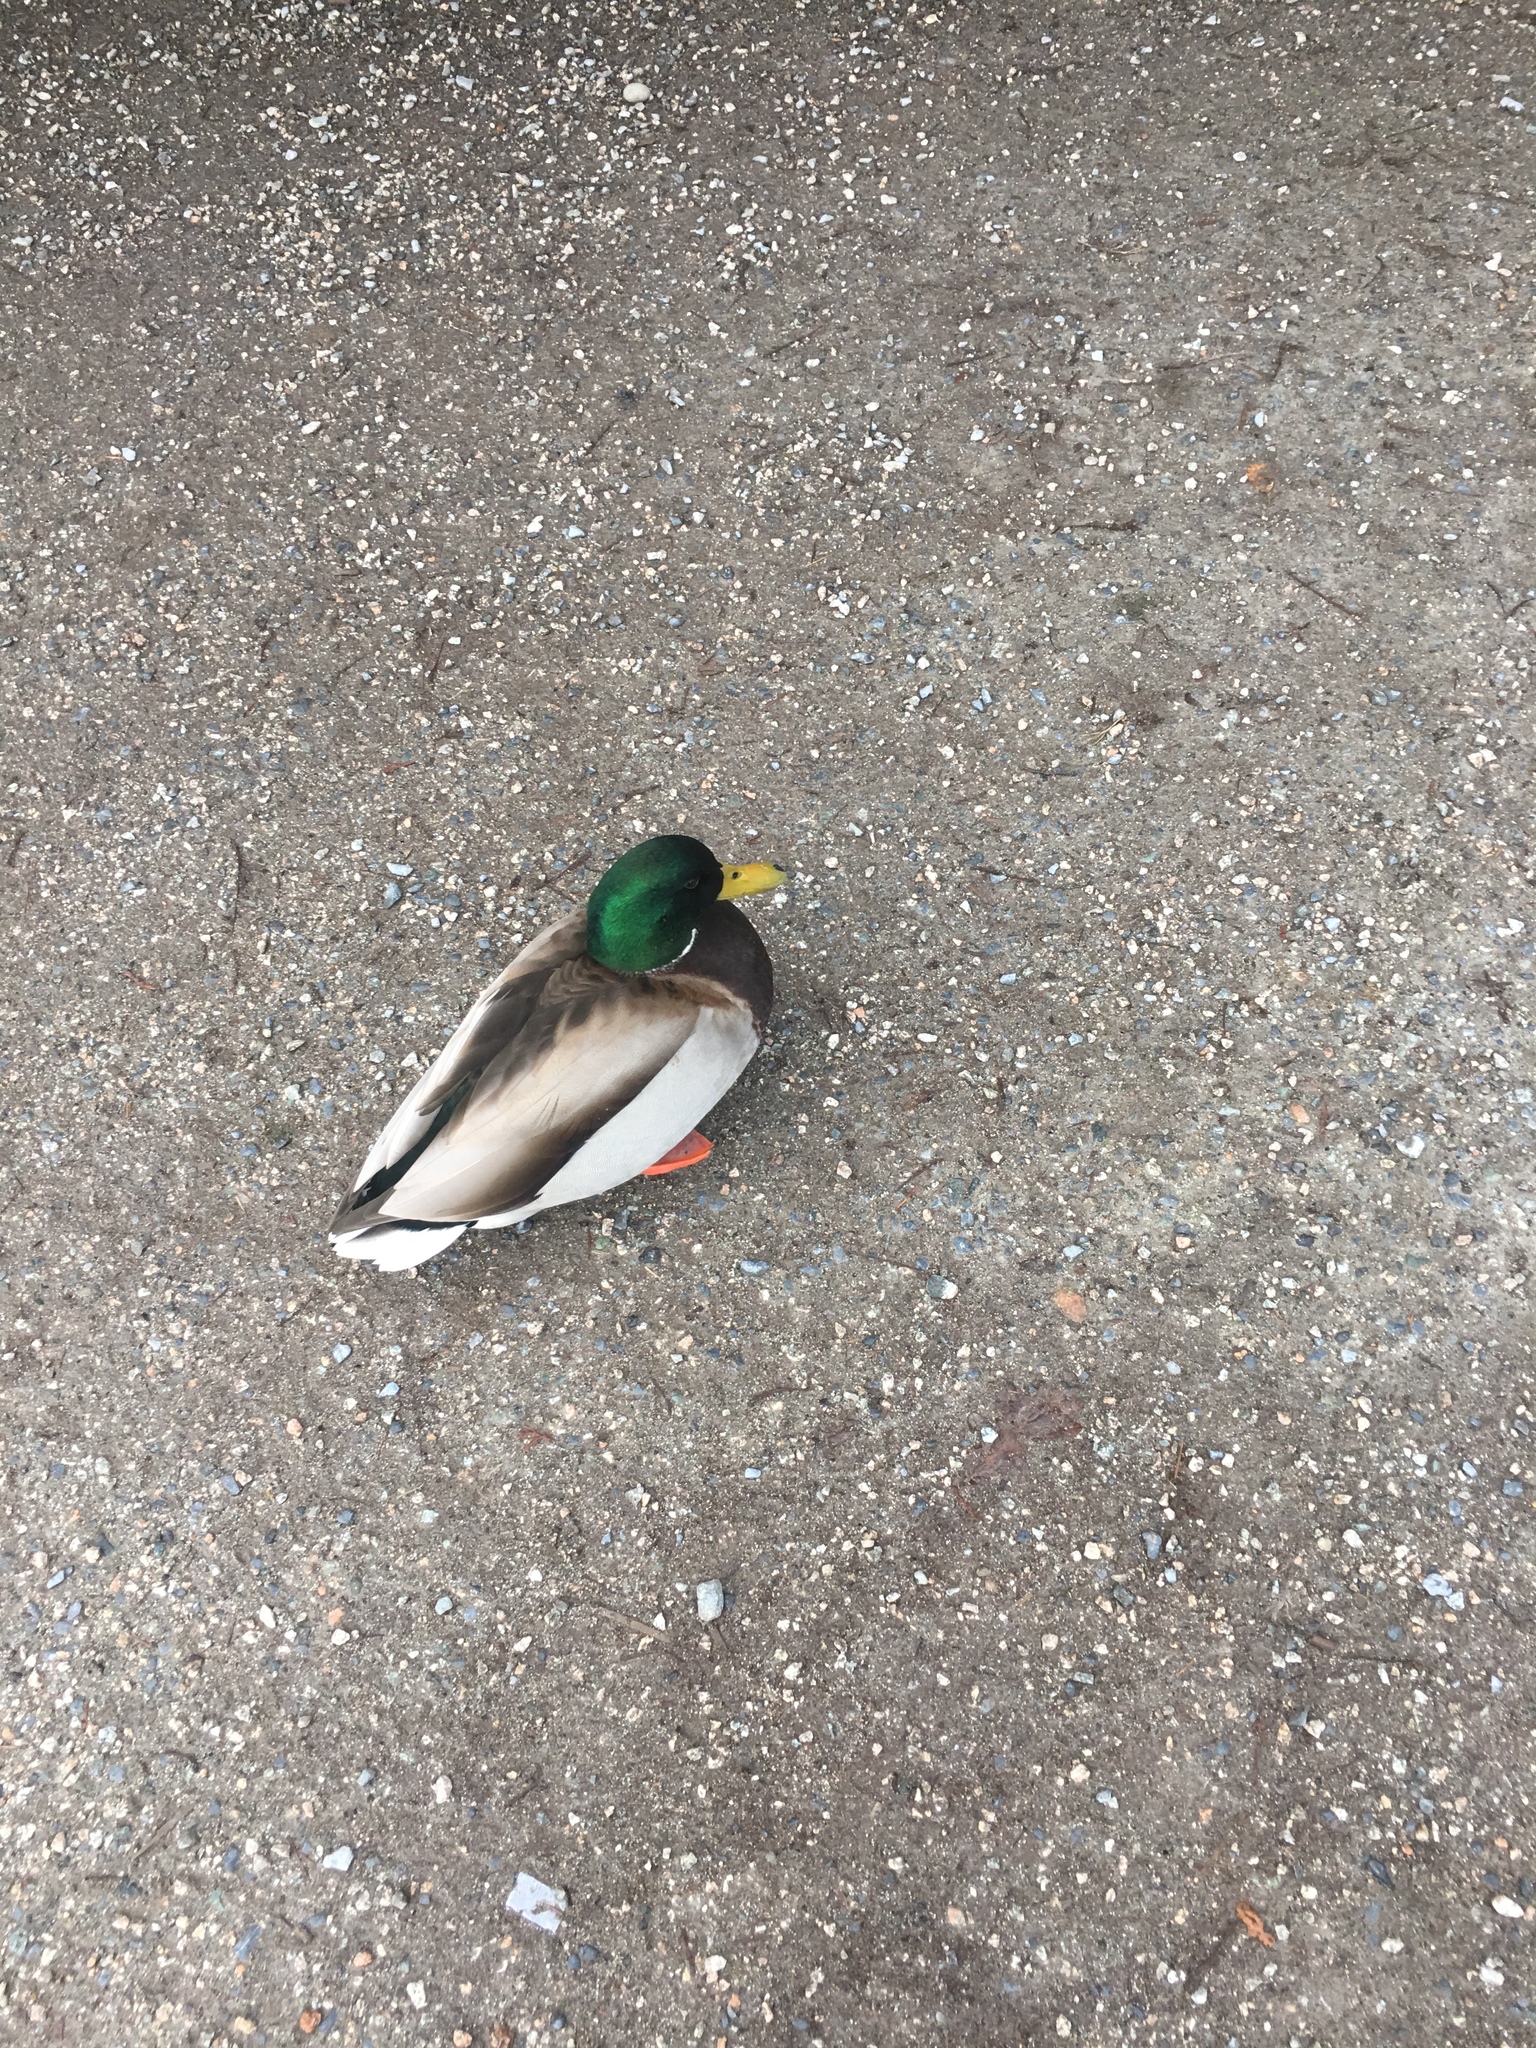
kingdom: Animalia
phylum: Chordata
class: Aves
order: Anseriformes
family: Anatidae
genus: Anas
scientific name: Anas platyrhynchos
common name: Mallard
